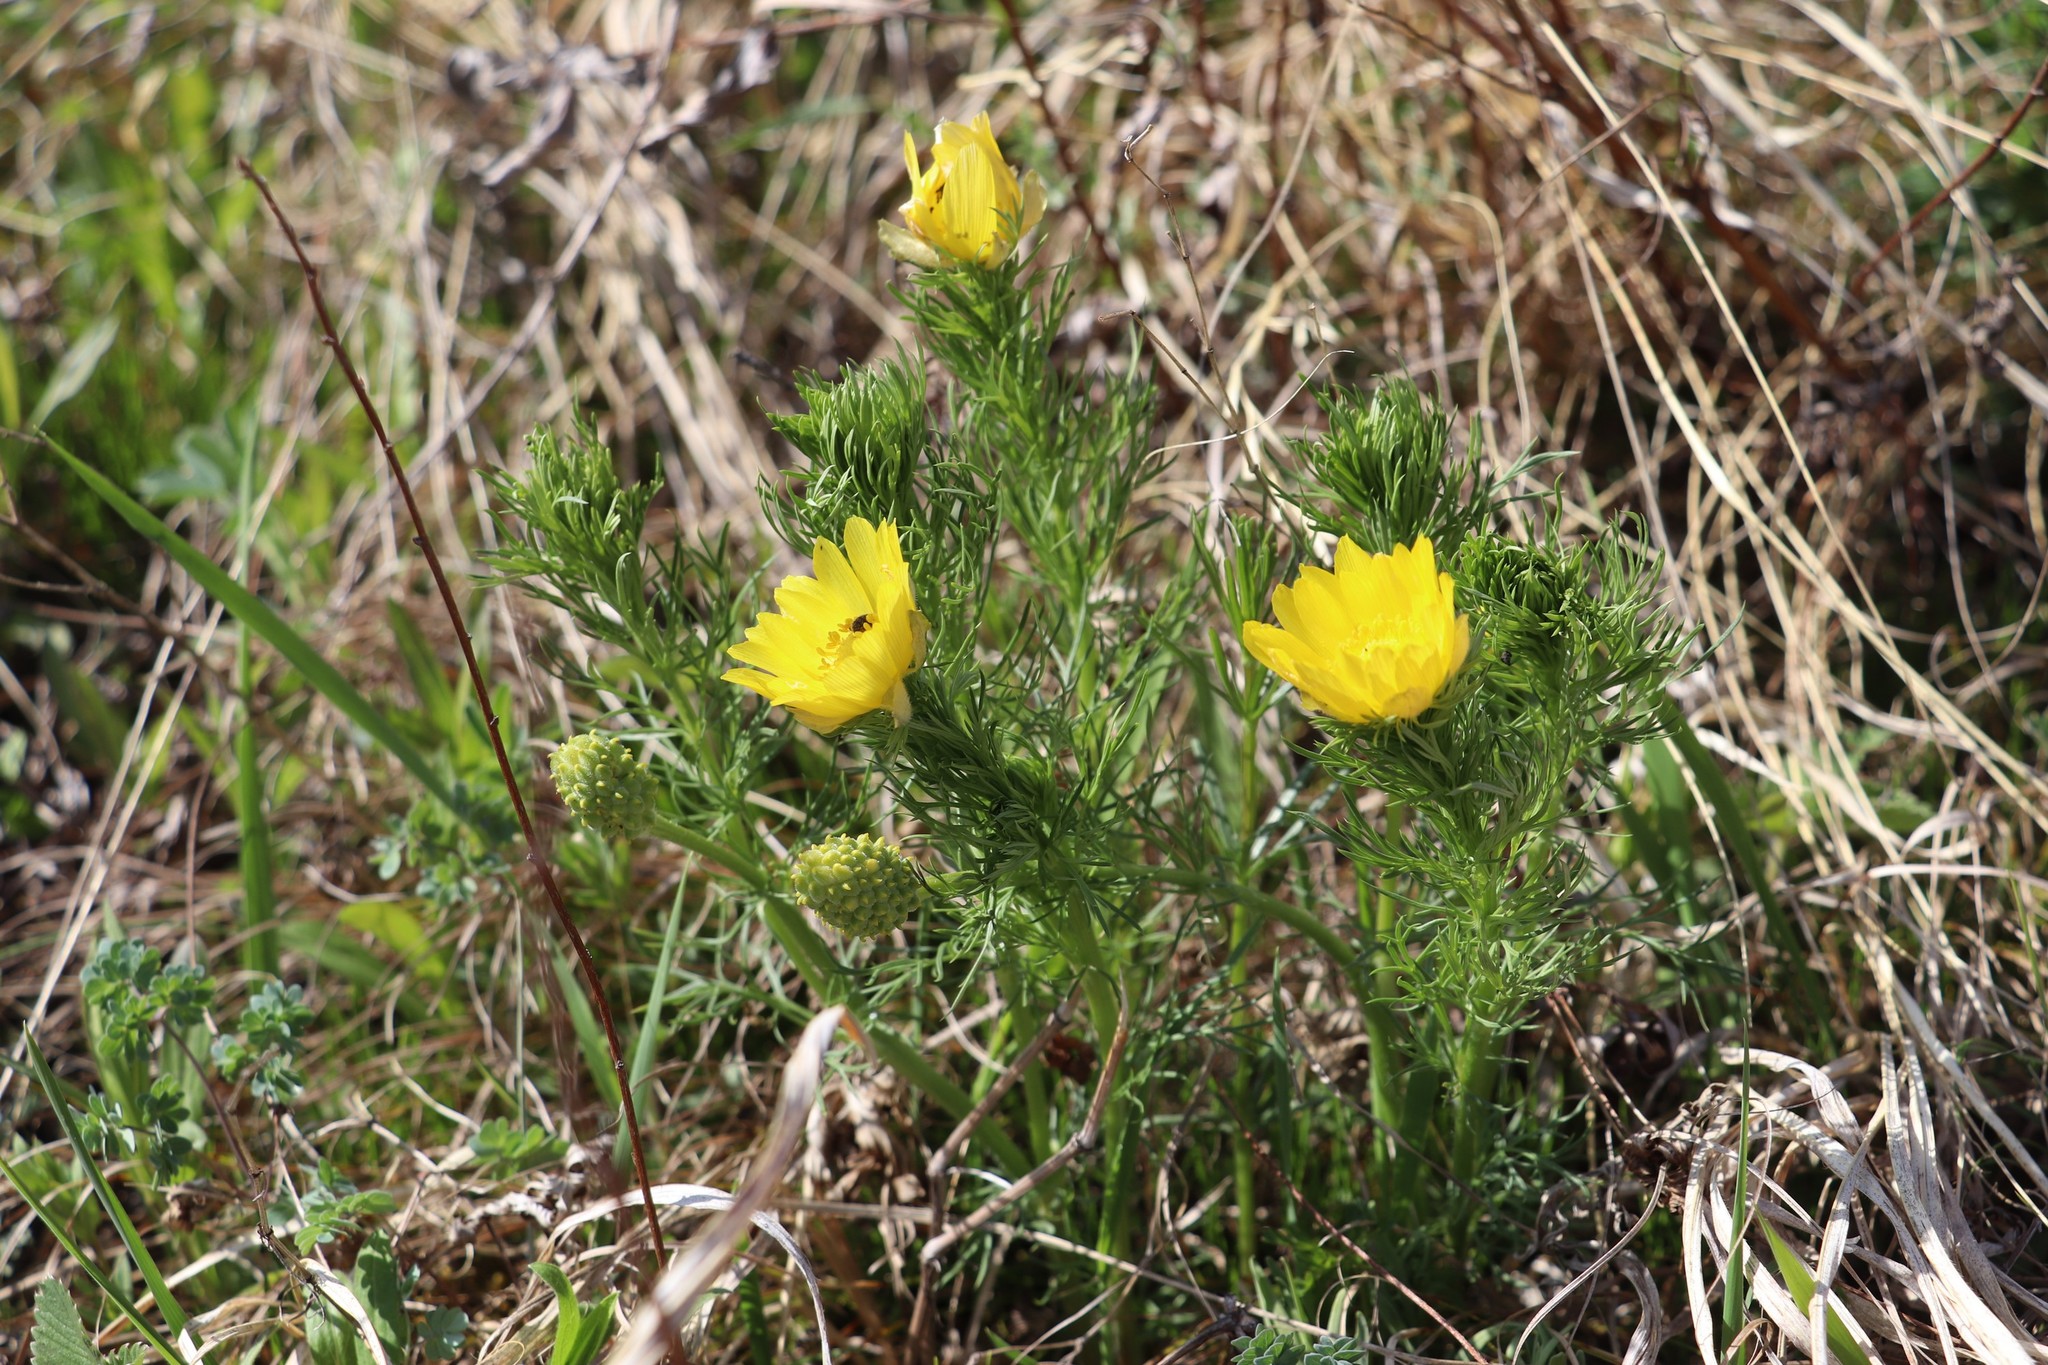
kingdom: Plantae
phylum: Tracheophyta
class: Magnoliopsida
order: Ranunculales
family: Ranunculaceae
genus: Adonis
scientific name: Adonis vernalis
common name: Yellow pheasants-eye
